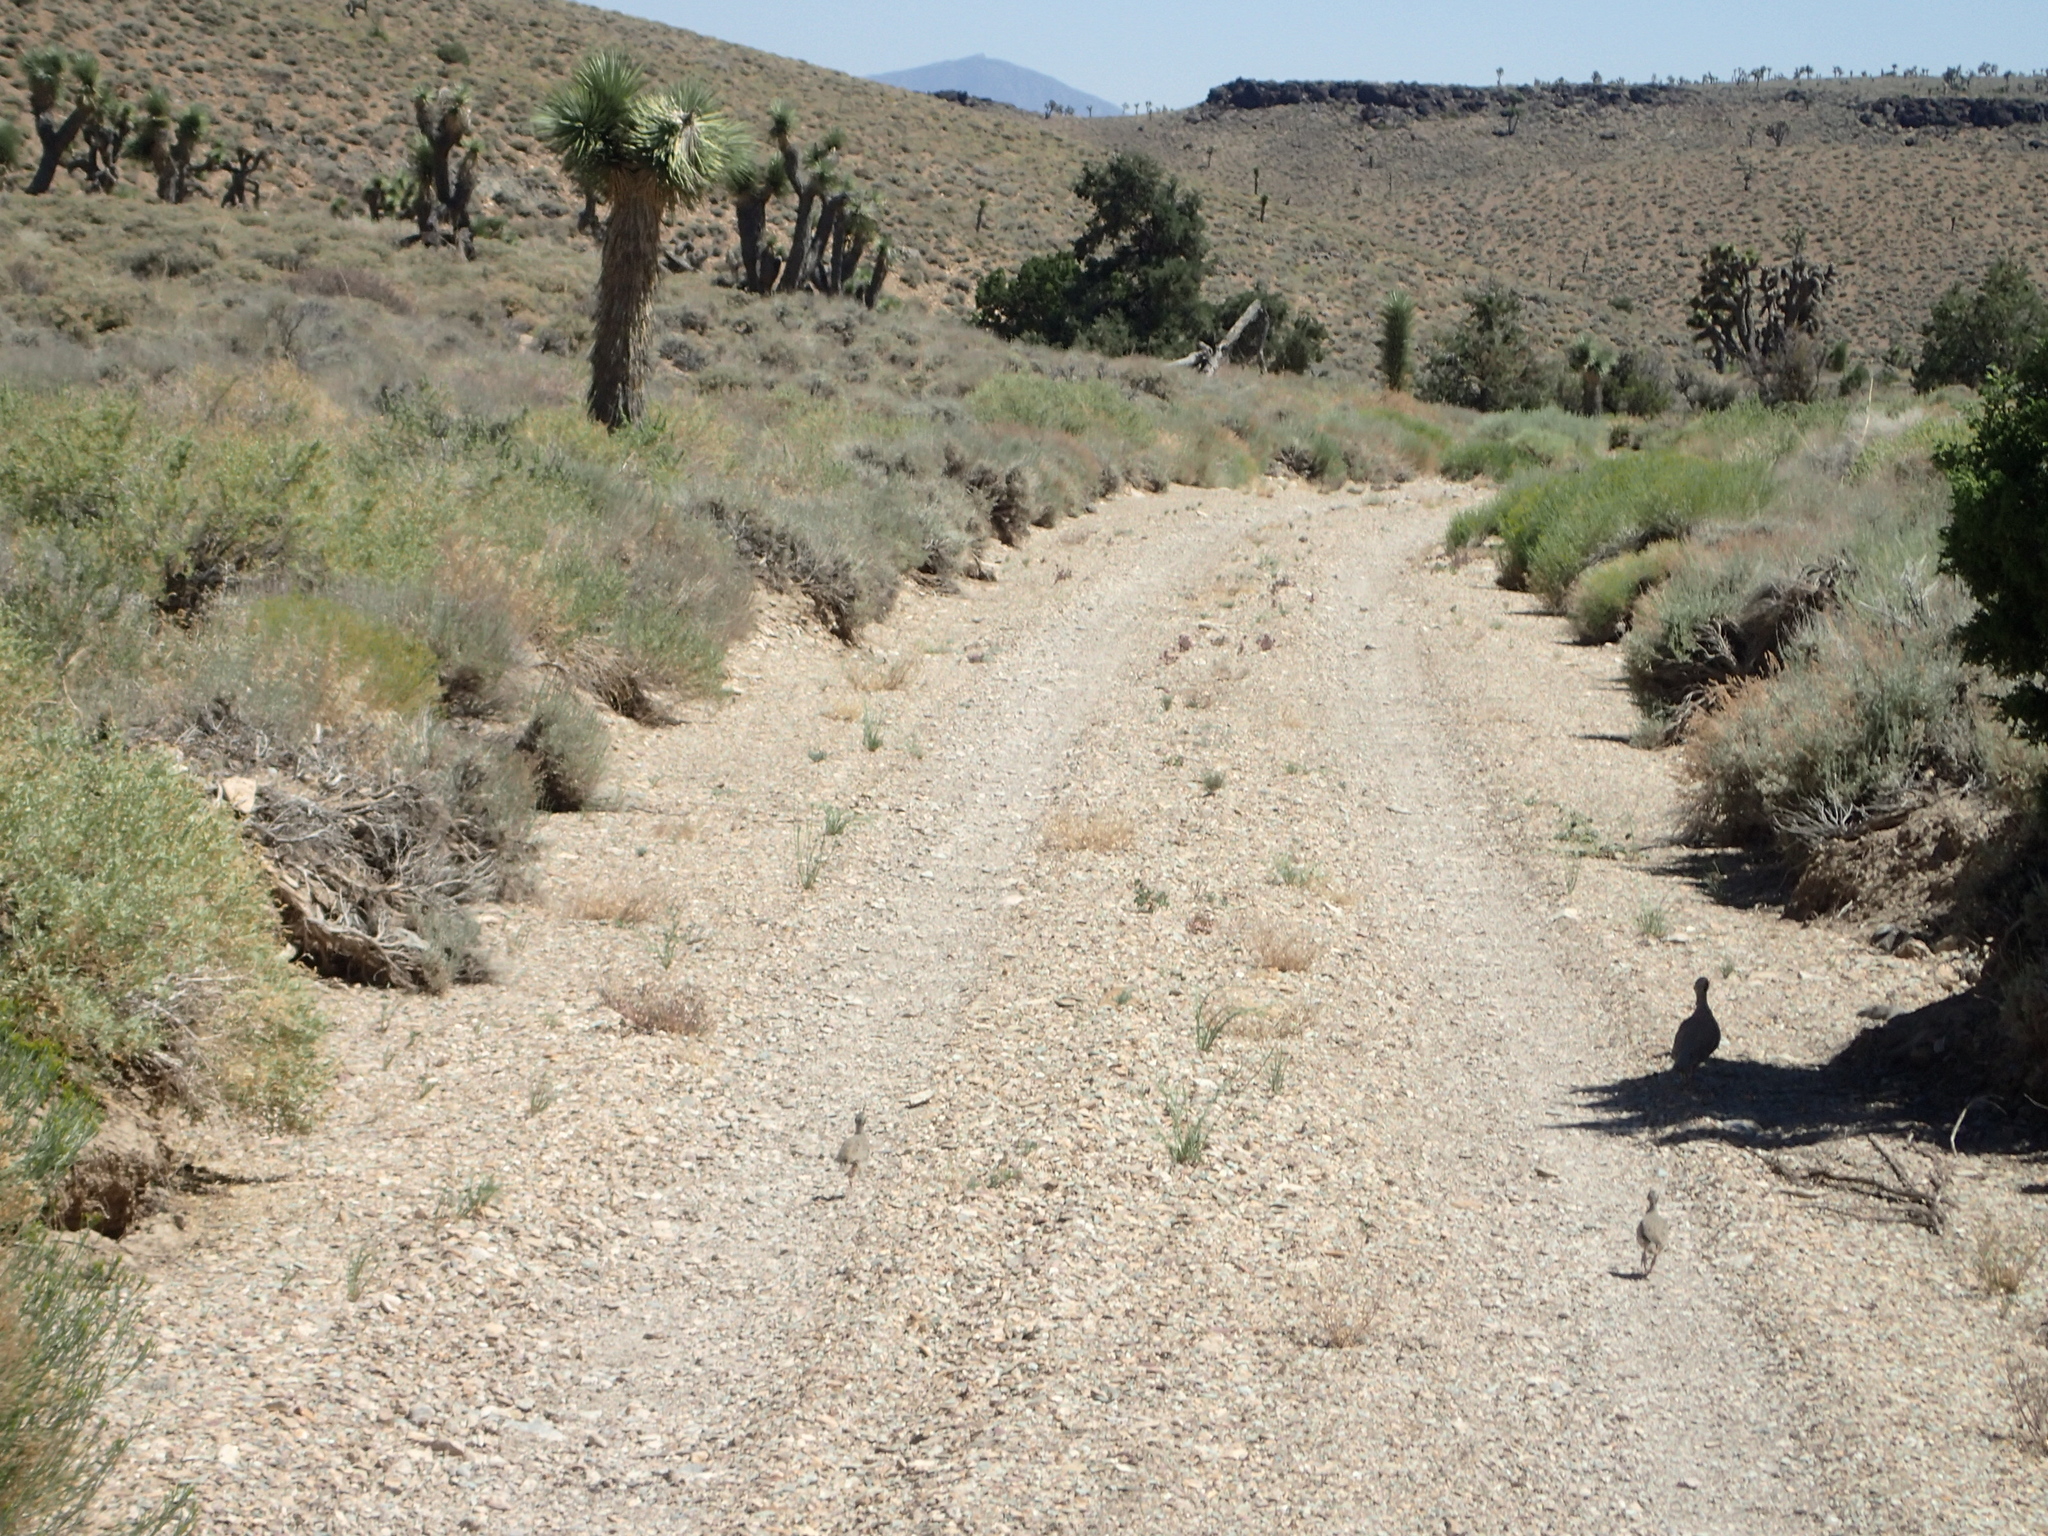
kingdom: Animalia
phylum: Chordata
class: Aves
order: Galliformes
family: Phasianidae
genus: Alectoris
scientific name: Alectoris chukar
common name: Chukar
